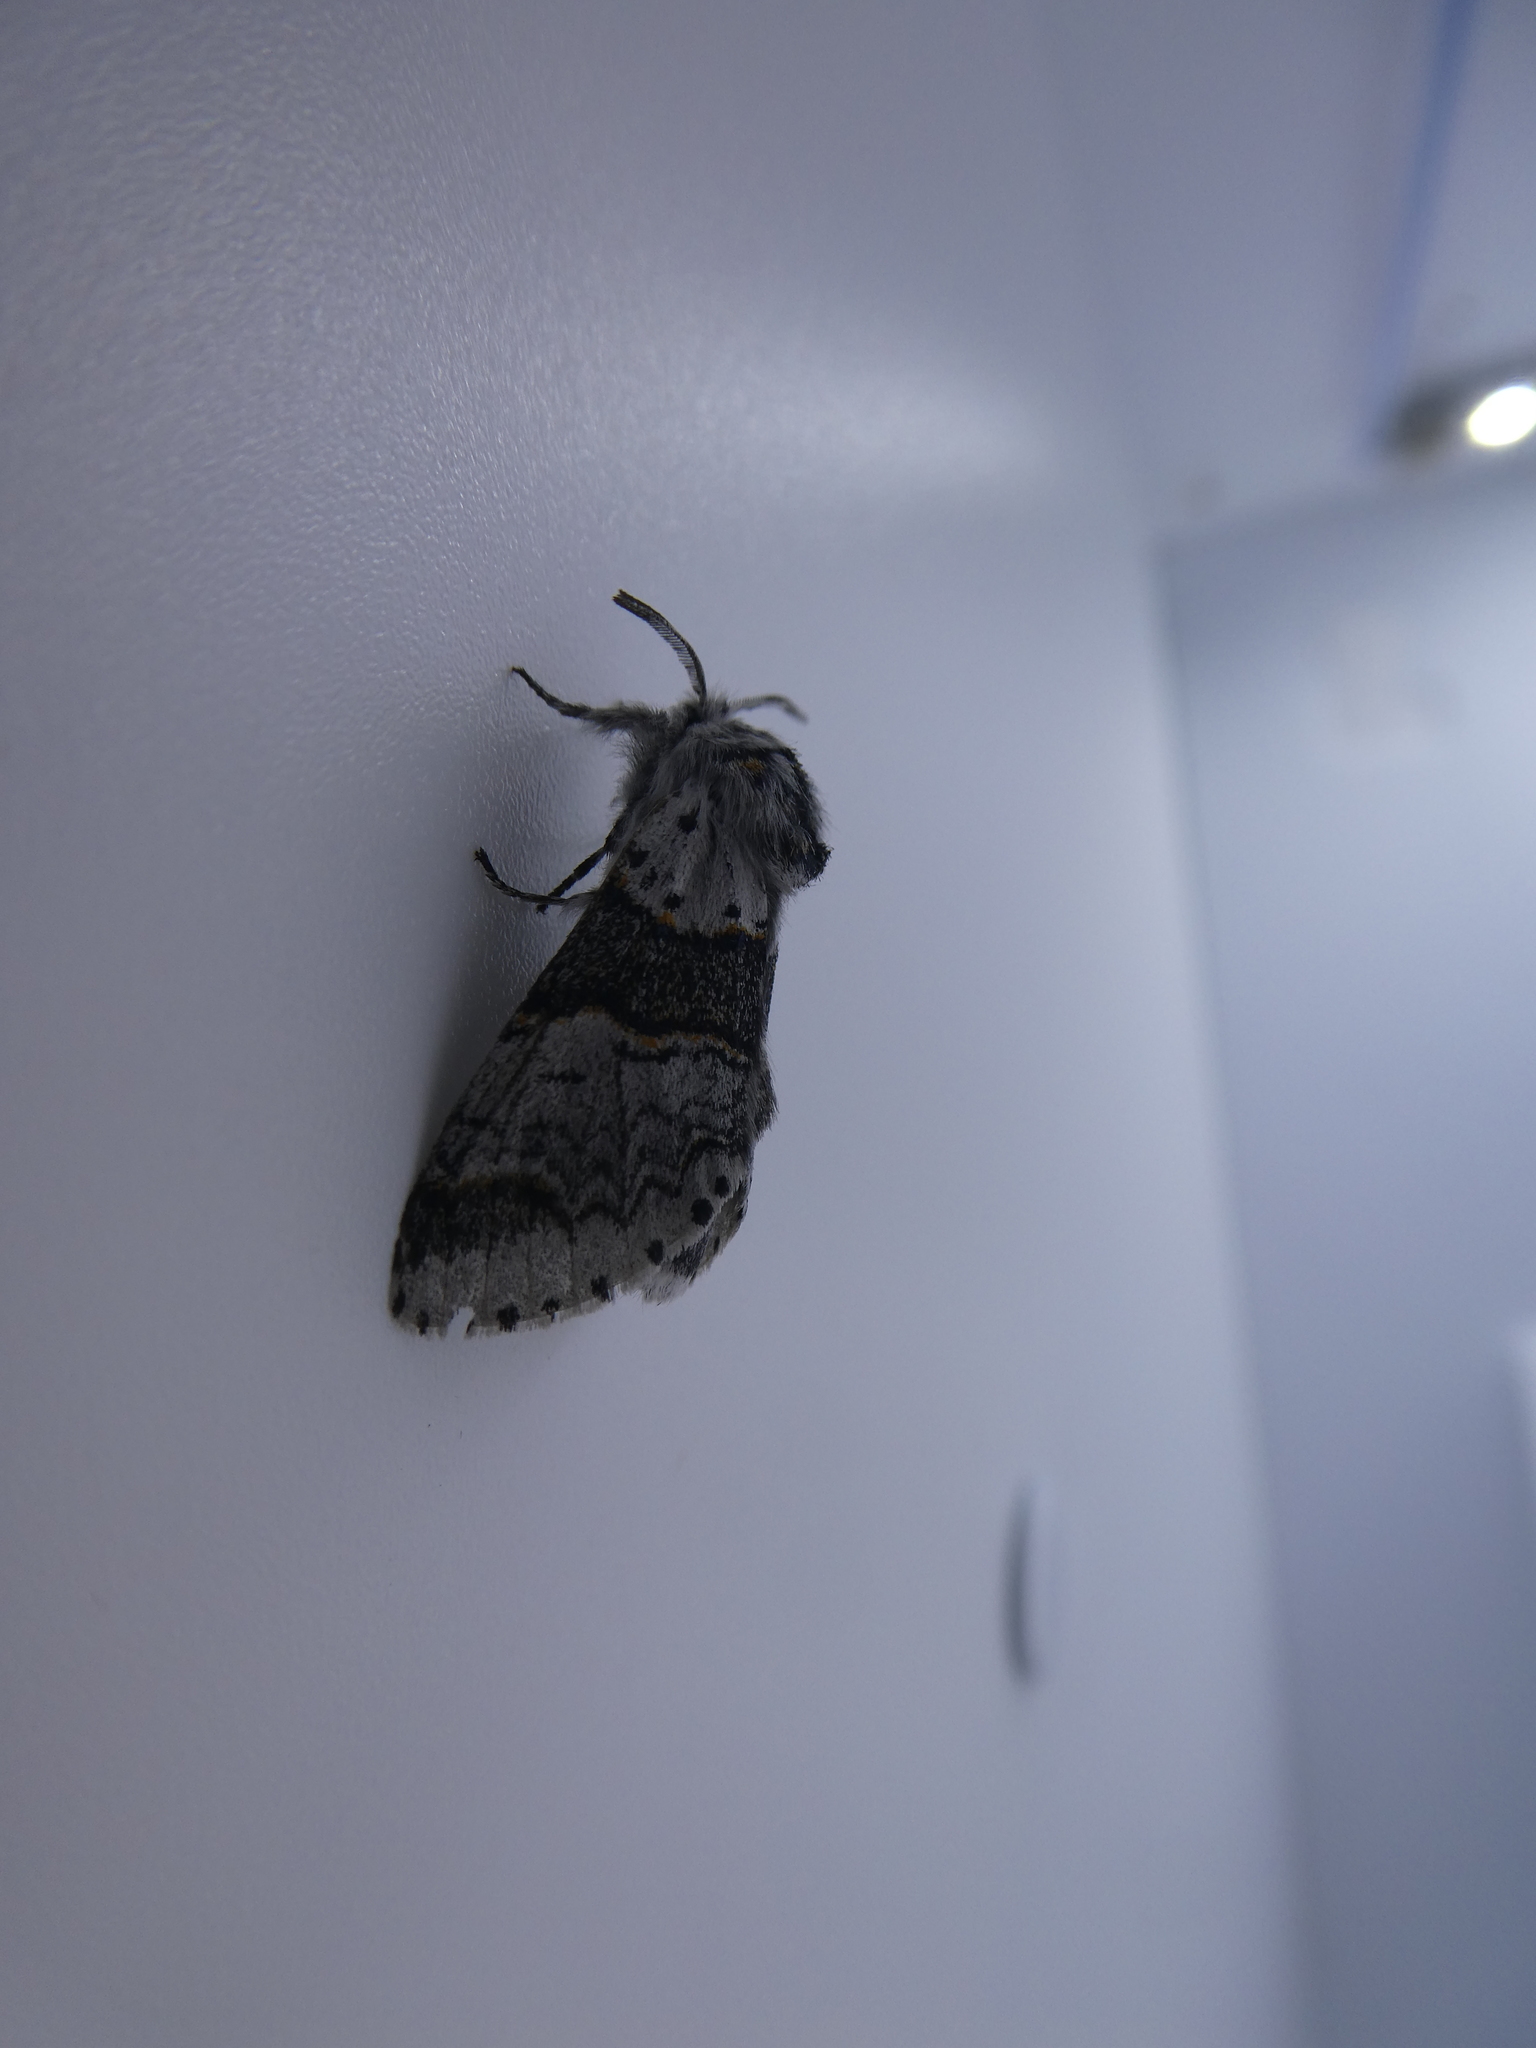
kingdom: Animalia
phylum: Arthropoda
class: Insecta
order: Lepidoptera
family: Notodontidae
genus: Furcula
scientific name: Furcula occidentalis
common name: Western furcula moth
